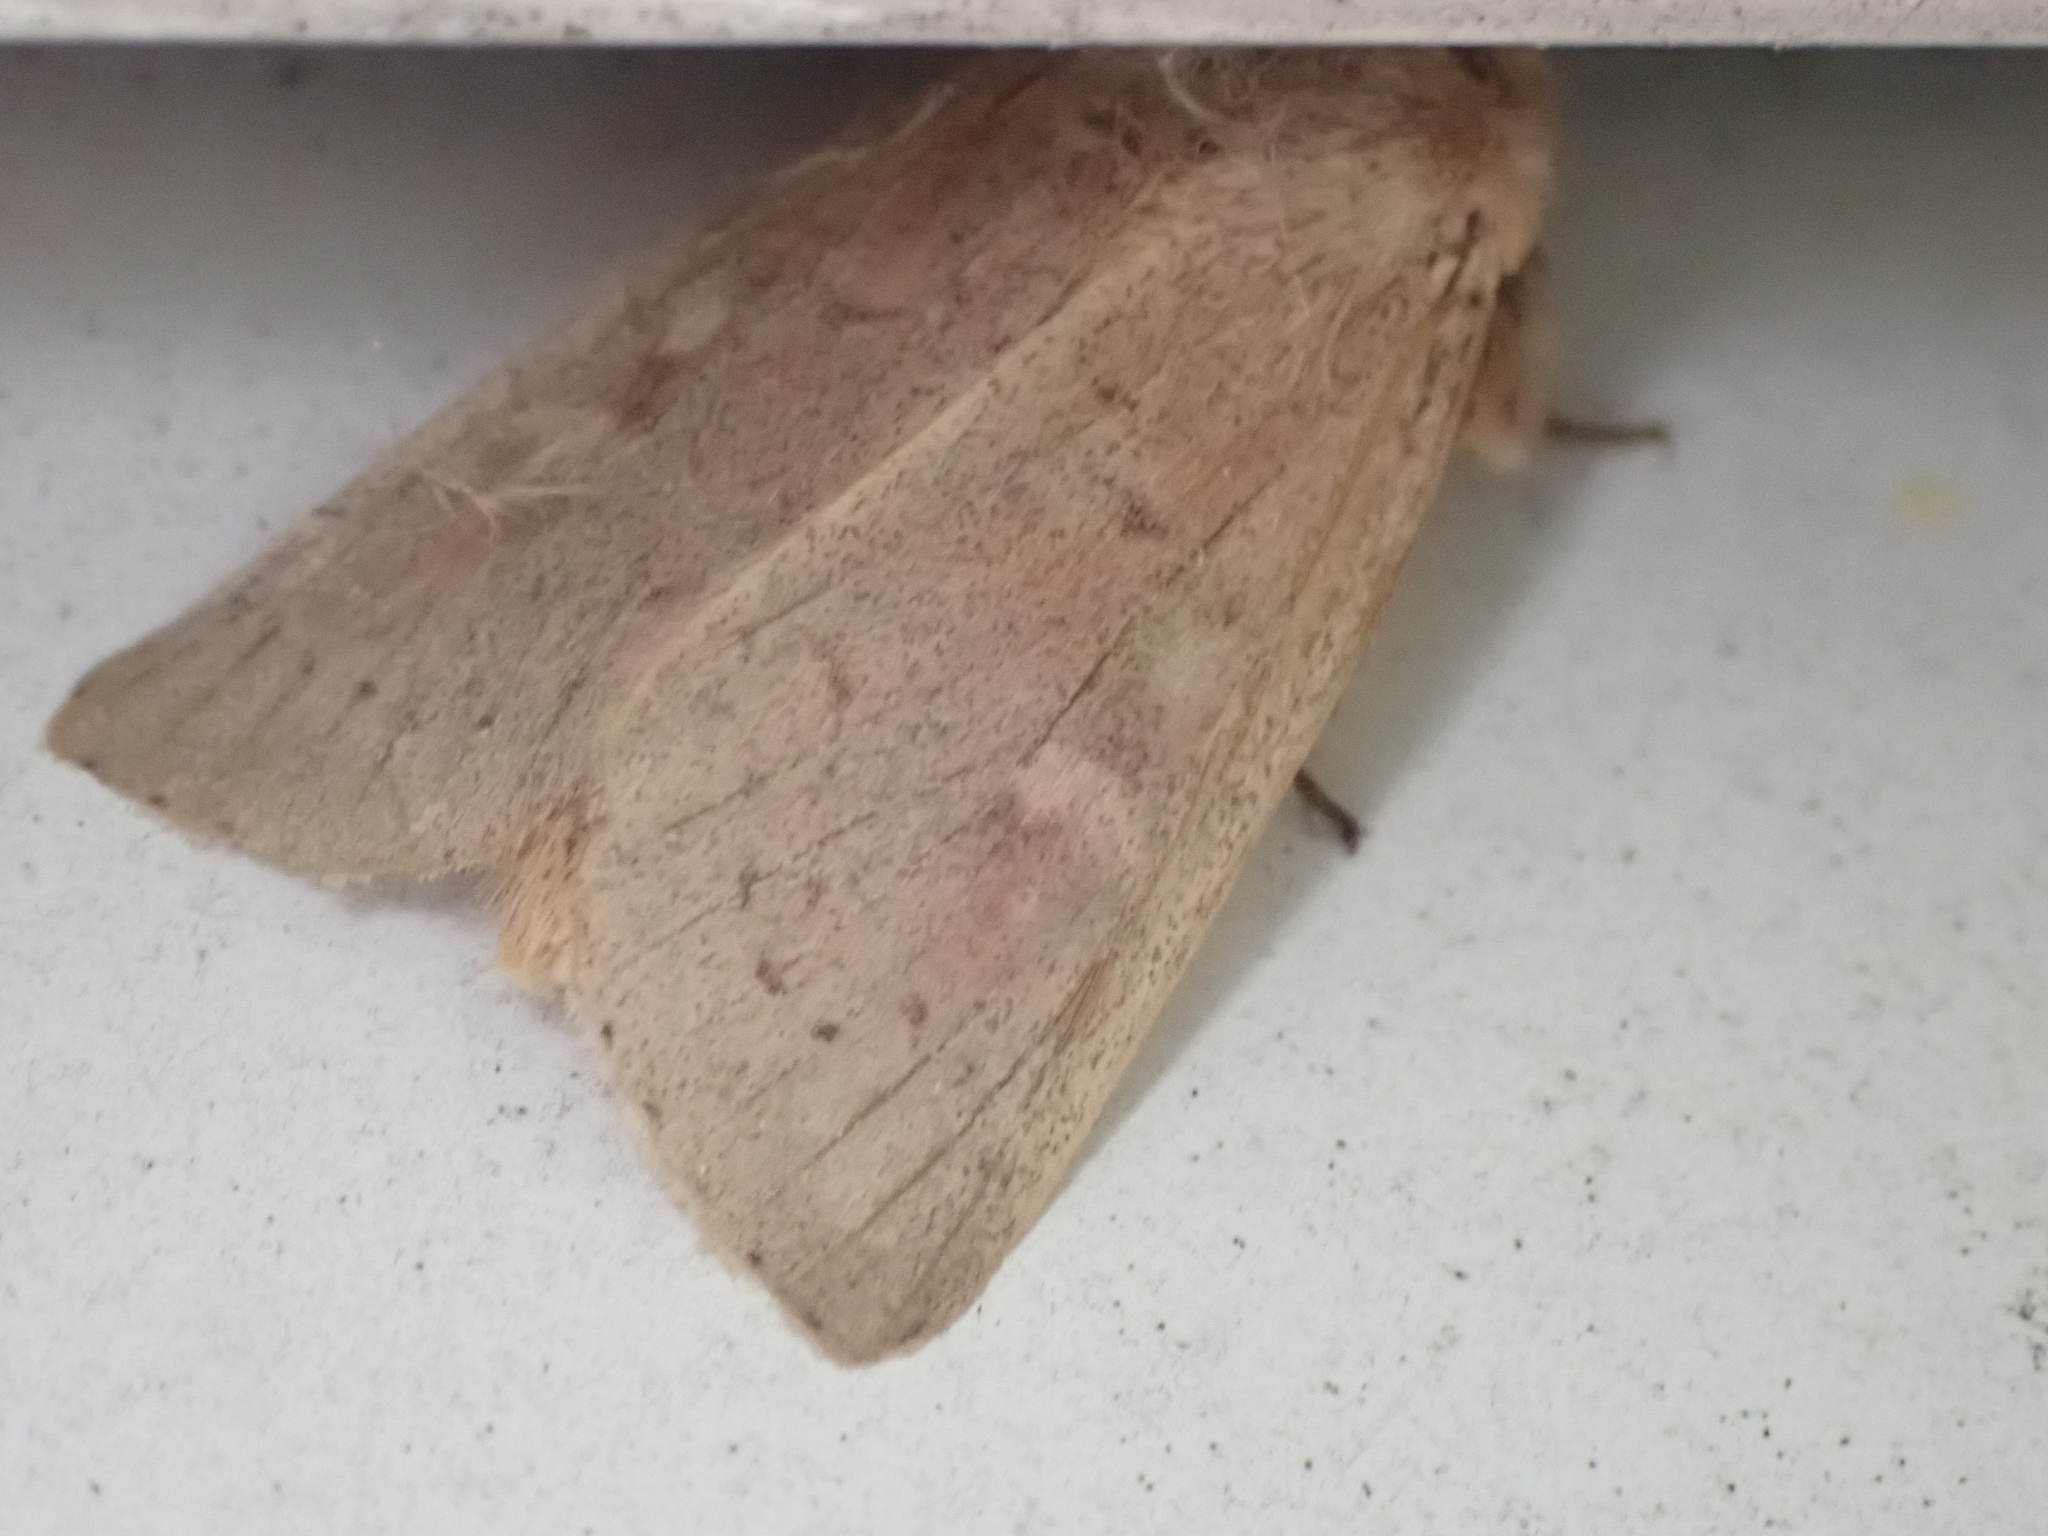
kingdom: Animalia
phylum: Arthropoda
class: Insecta
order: Lepidoptera
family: Noctuidae
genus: Leucania
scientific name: Leucania pseudargyria
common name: False wainscot
